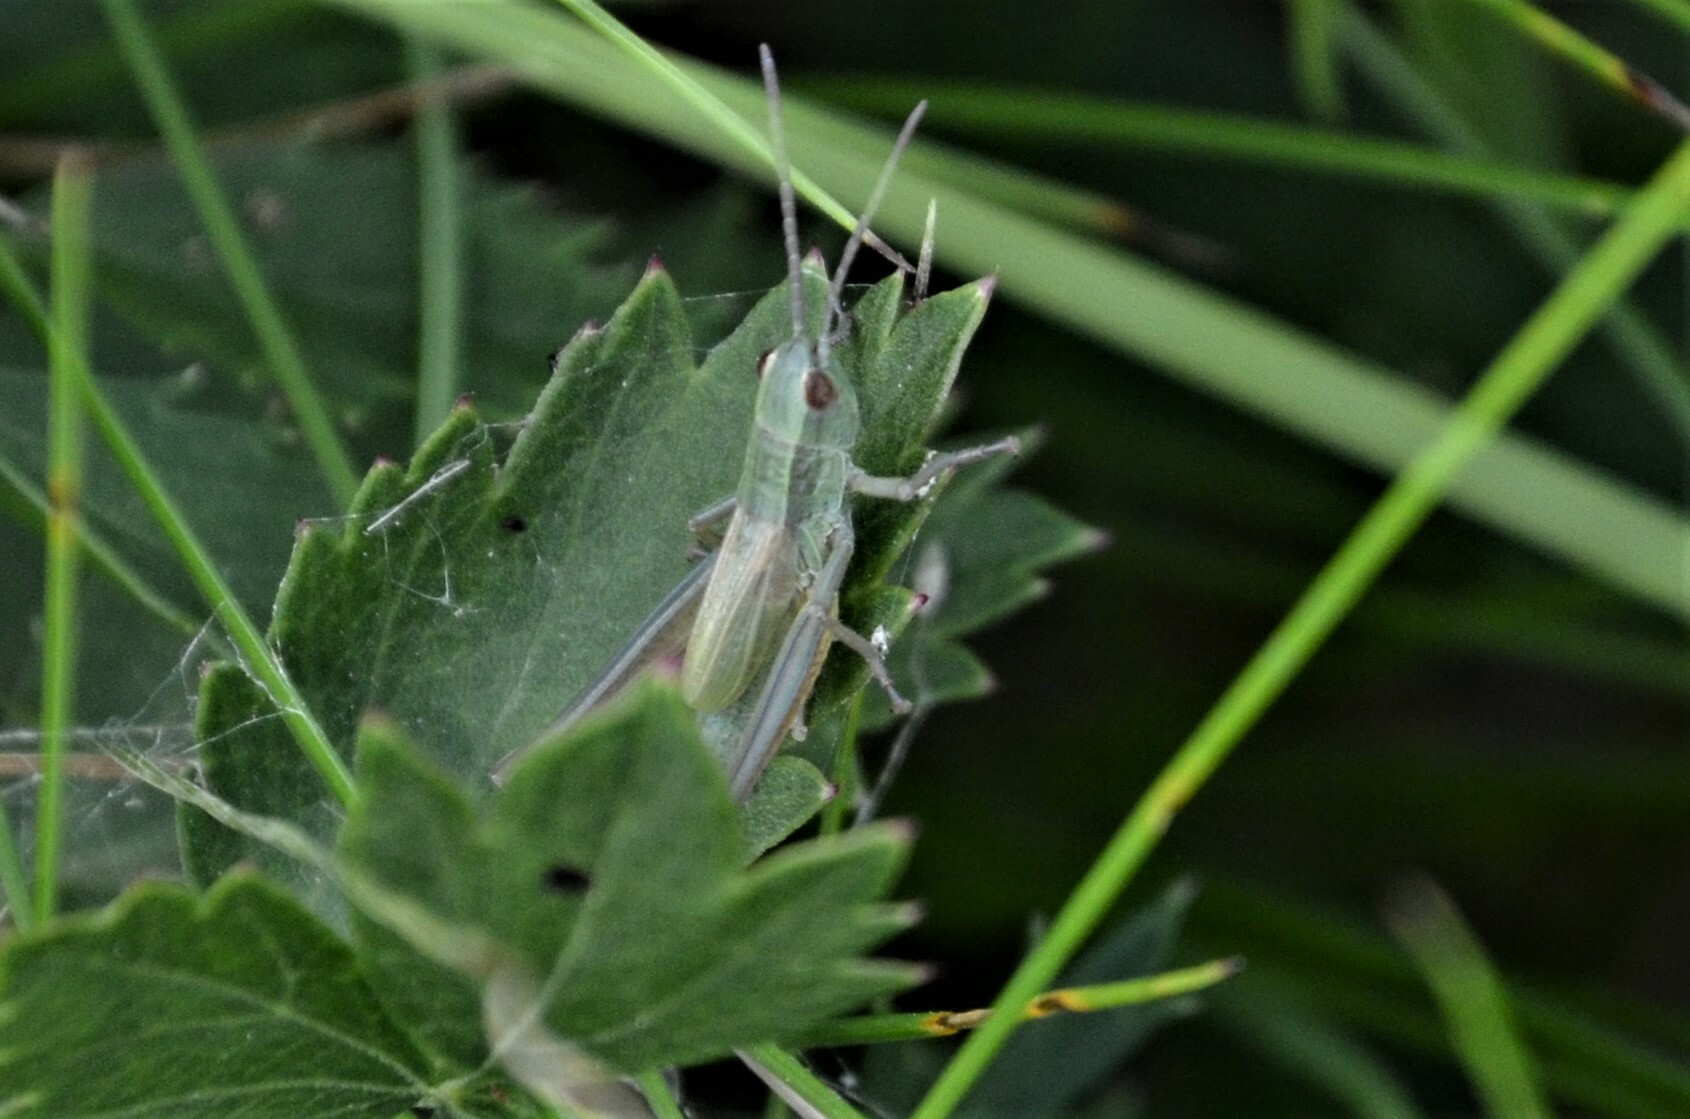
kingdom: Animalia
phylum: Arthropoda
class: Insecta
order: Orthoptera
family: Acrididae
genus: Euthystira
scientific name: Euthystira brachyptera
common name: Small gold grasshopper
